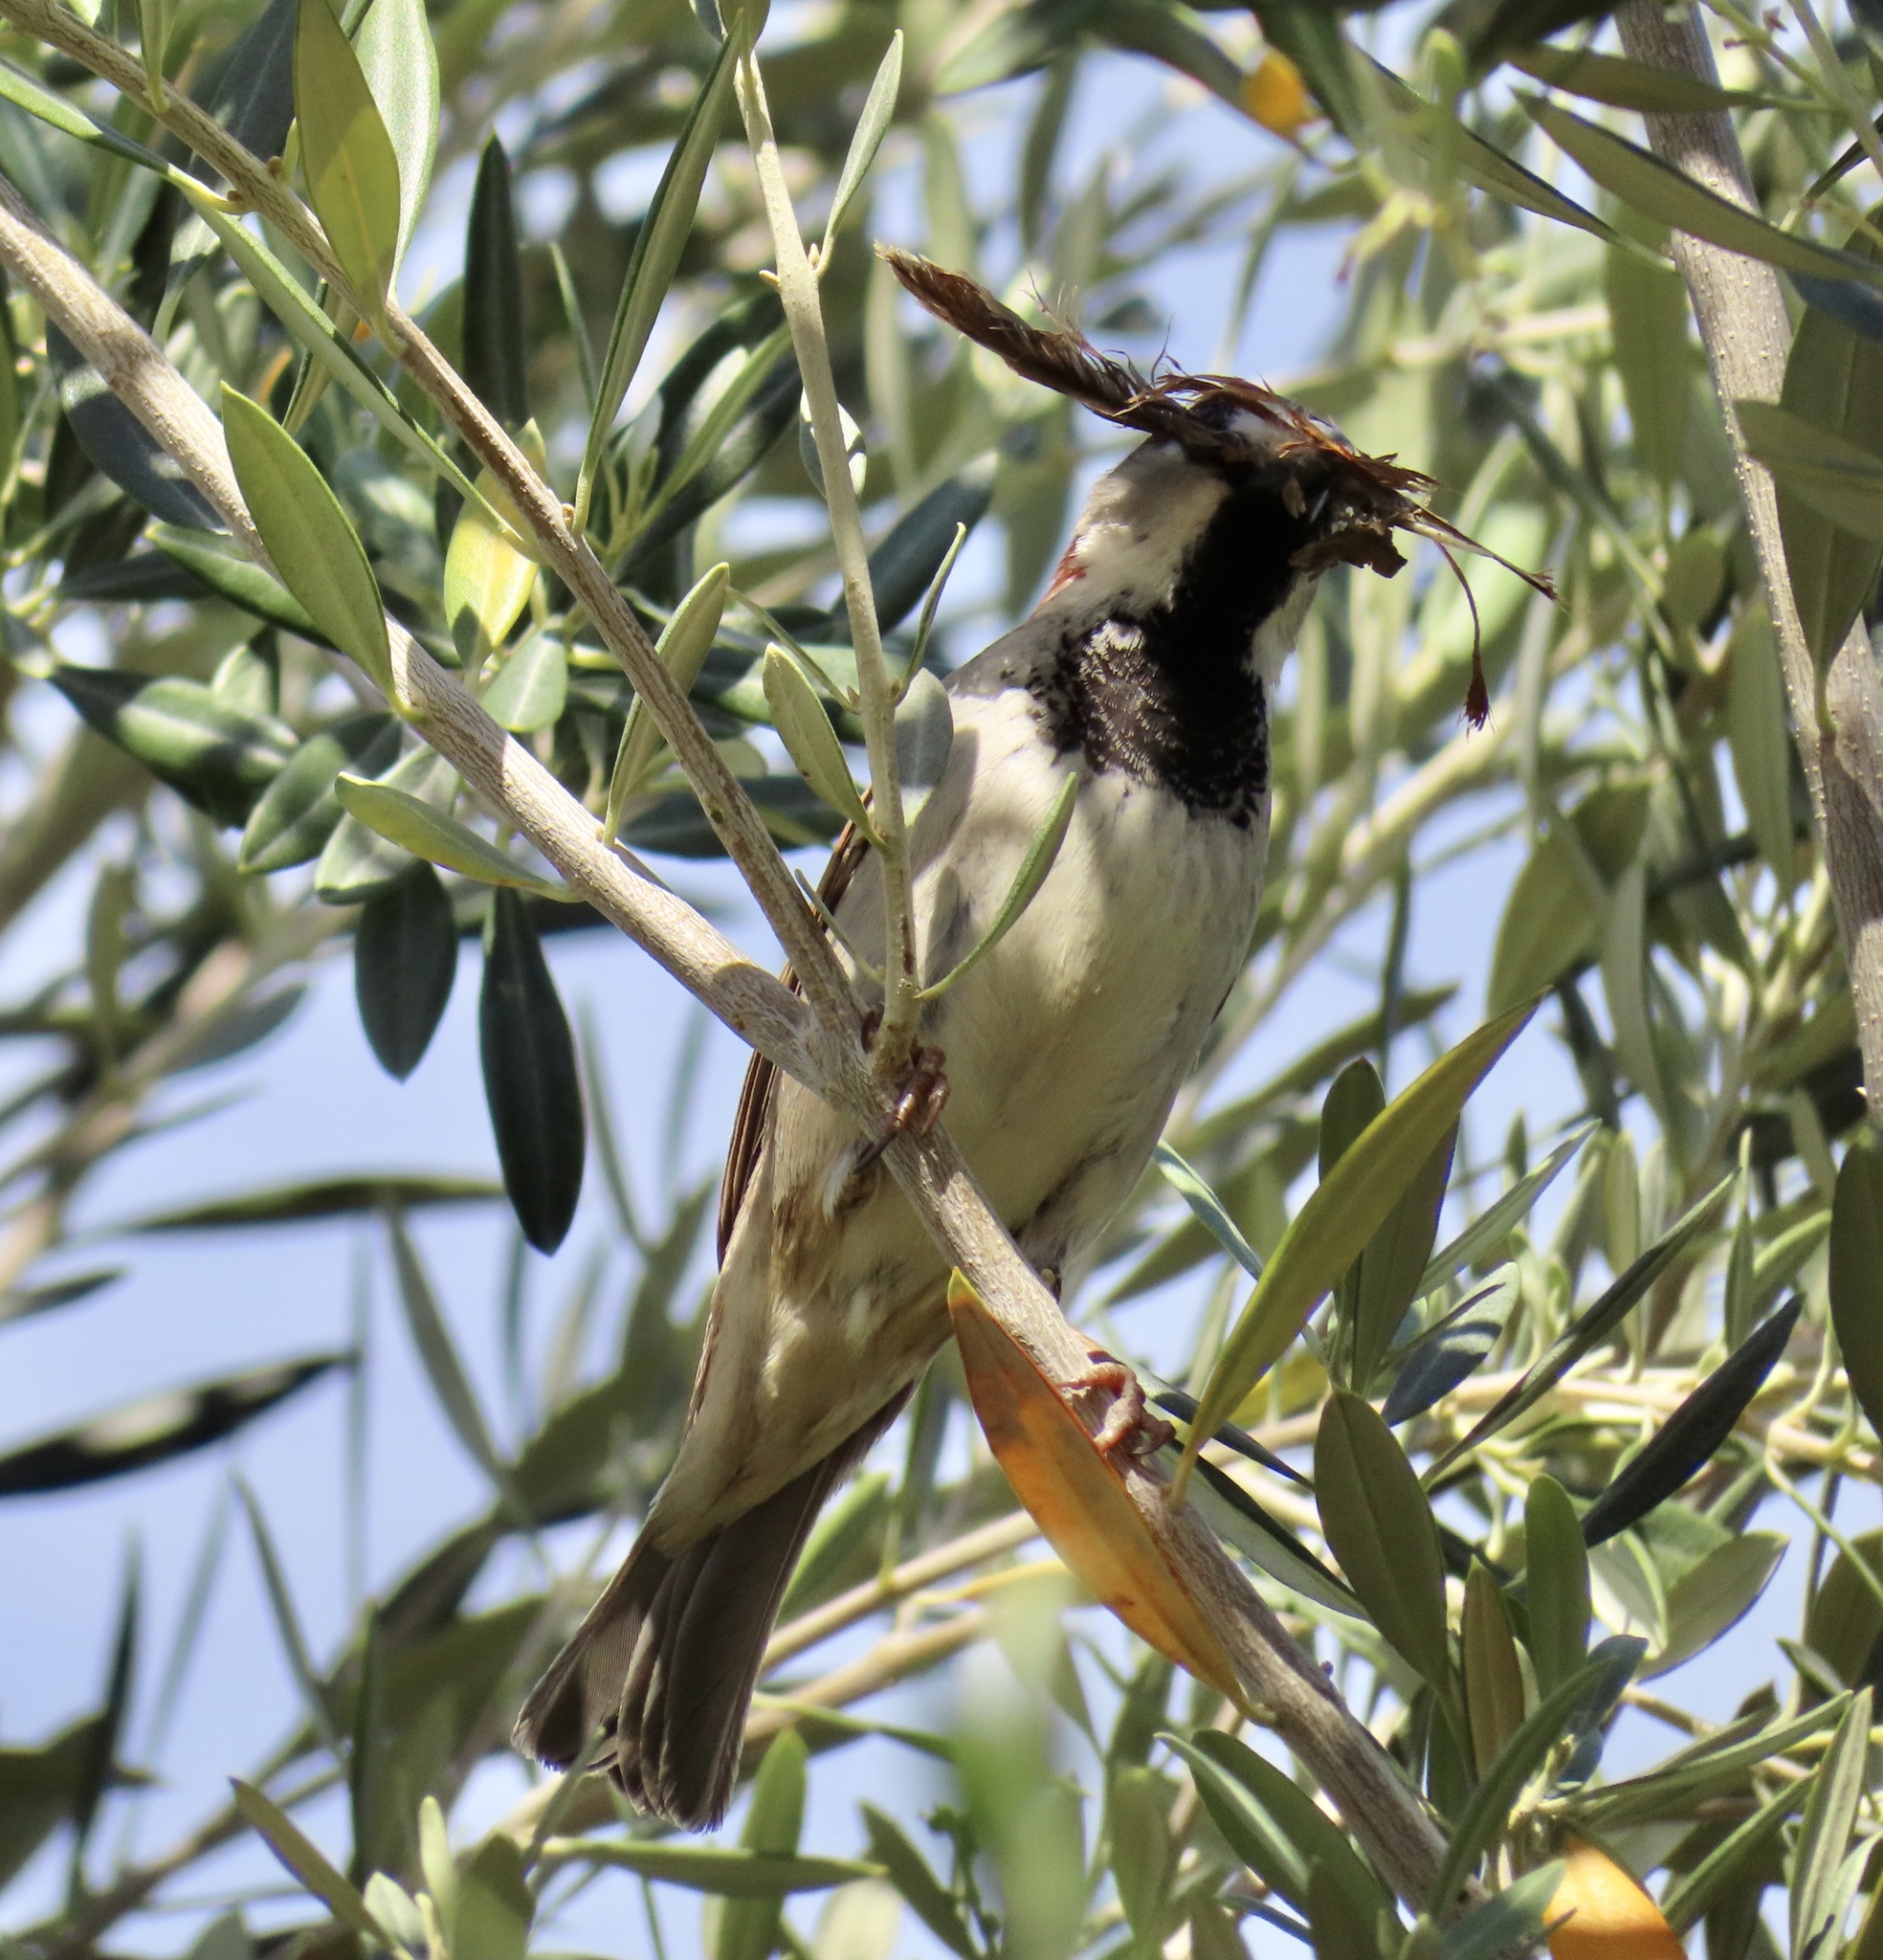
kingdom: Animalia
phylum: Chordata
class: Aves
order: Passeriformes
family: Passeridae
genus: Passer
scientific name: Passer domesticus
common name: House sparrow
